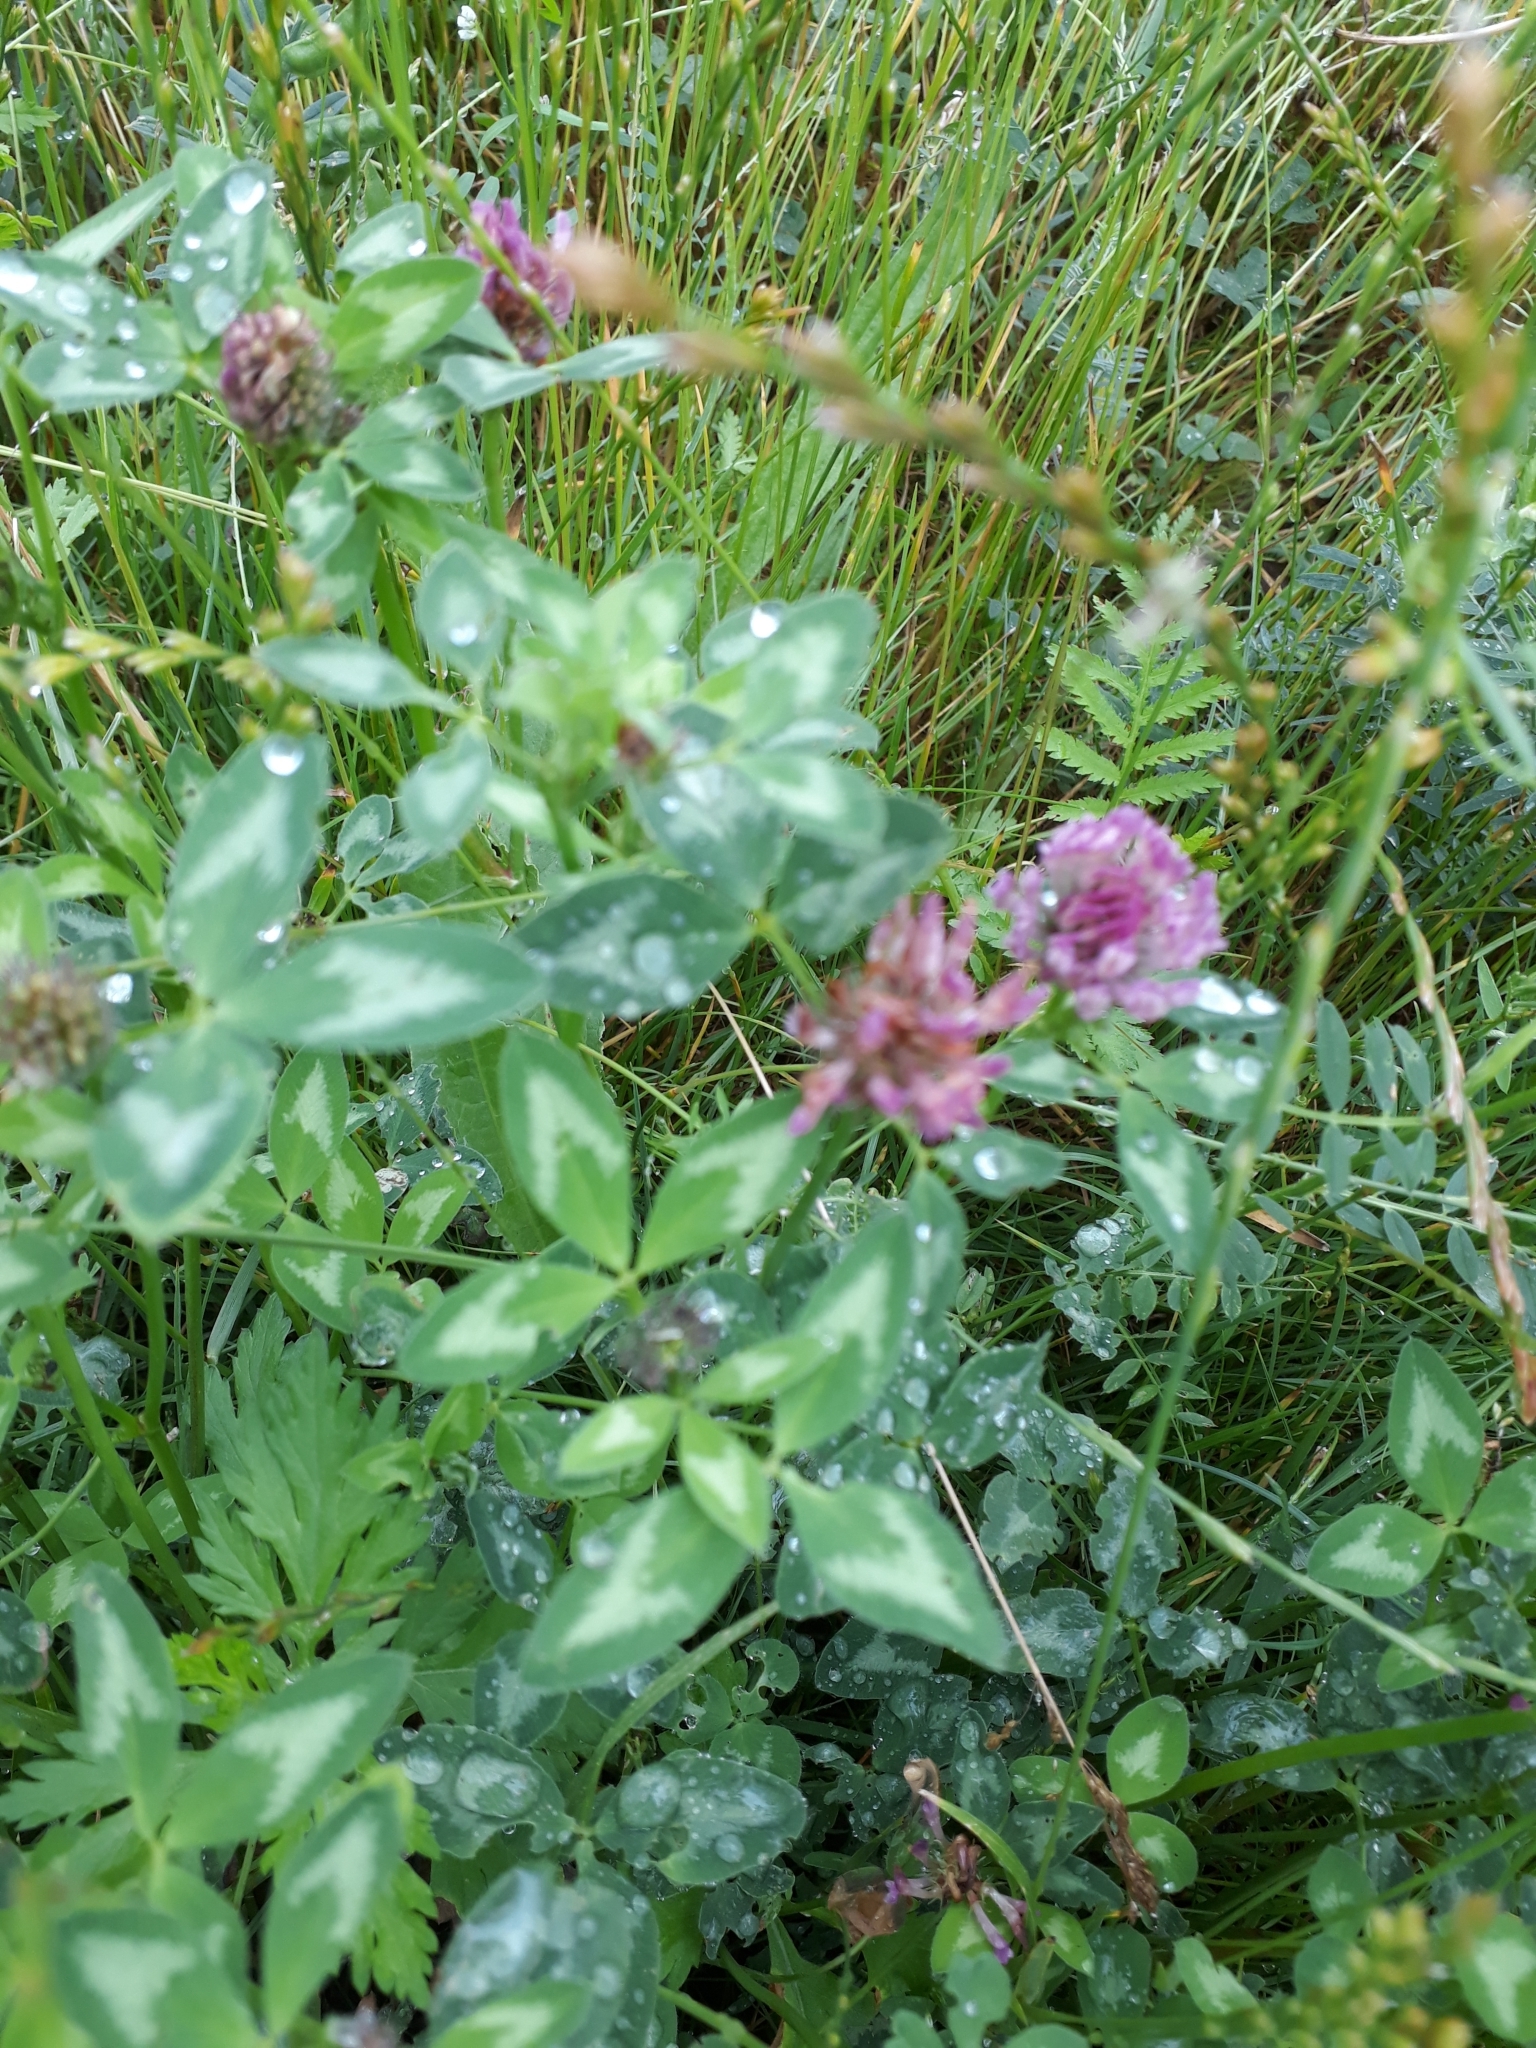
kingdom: Plantae
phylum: Tracheophyta
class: Magnoliopsida
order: Fabales
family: Fabaceae
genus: Trifolium
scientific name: Trifolium pratense
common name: Red clover
